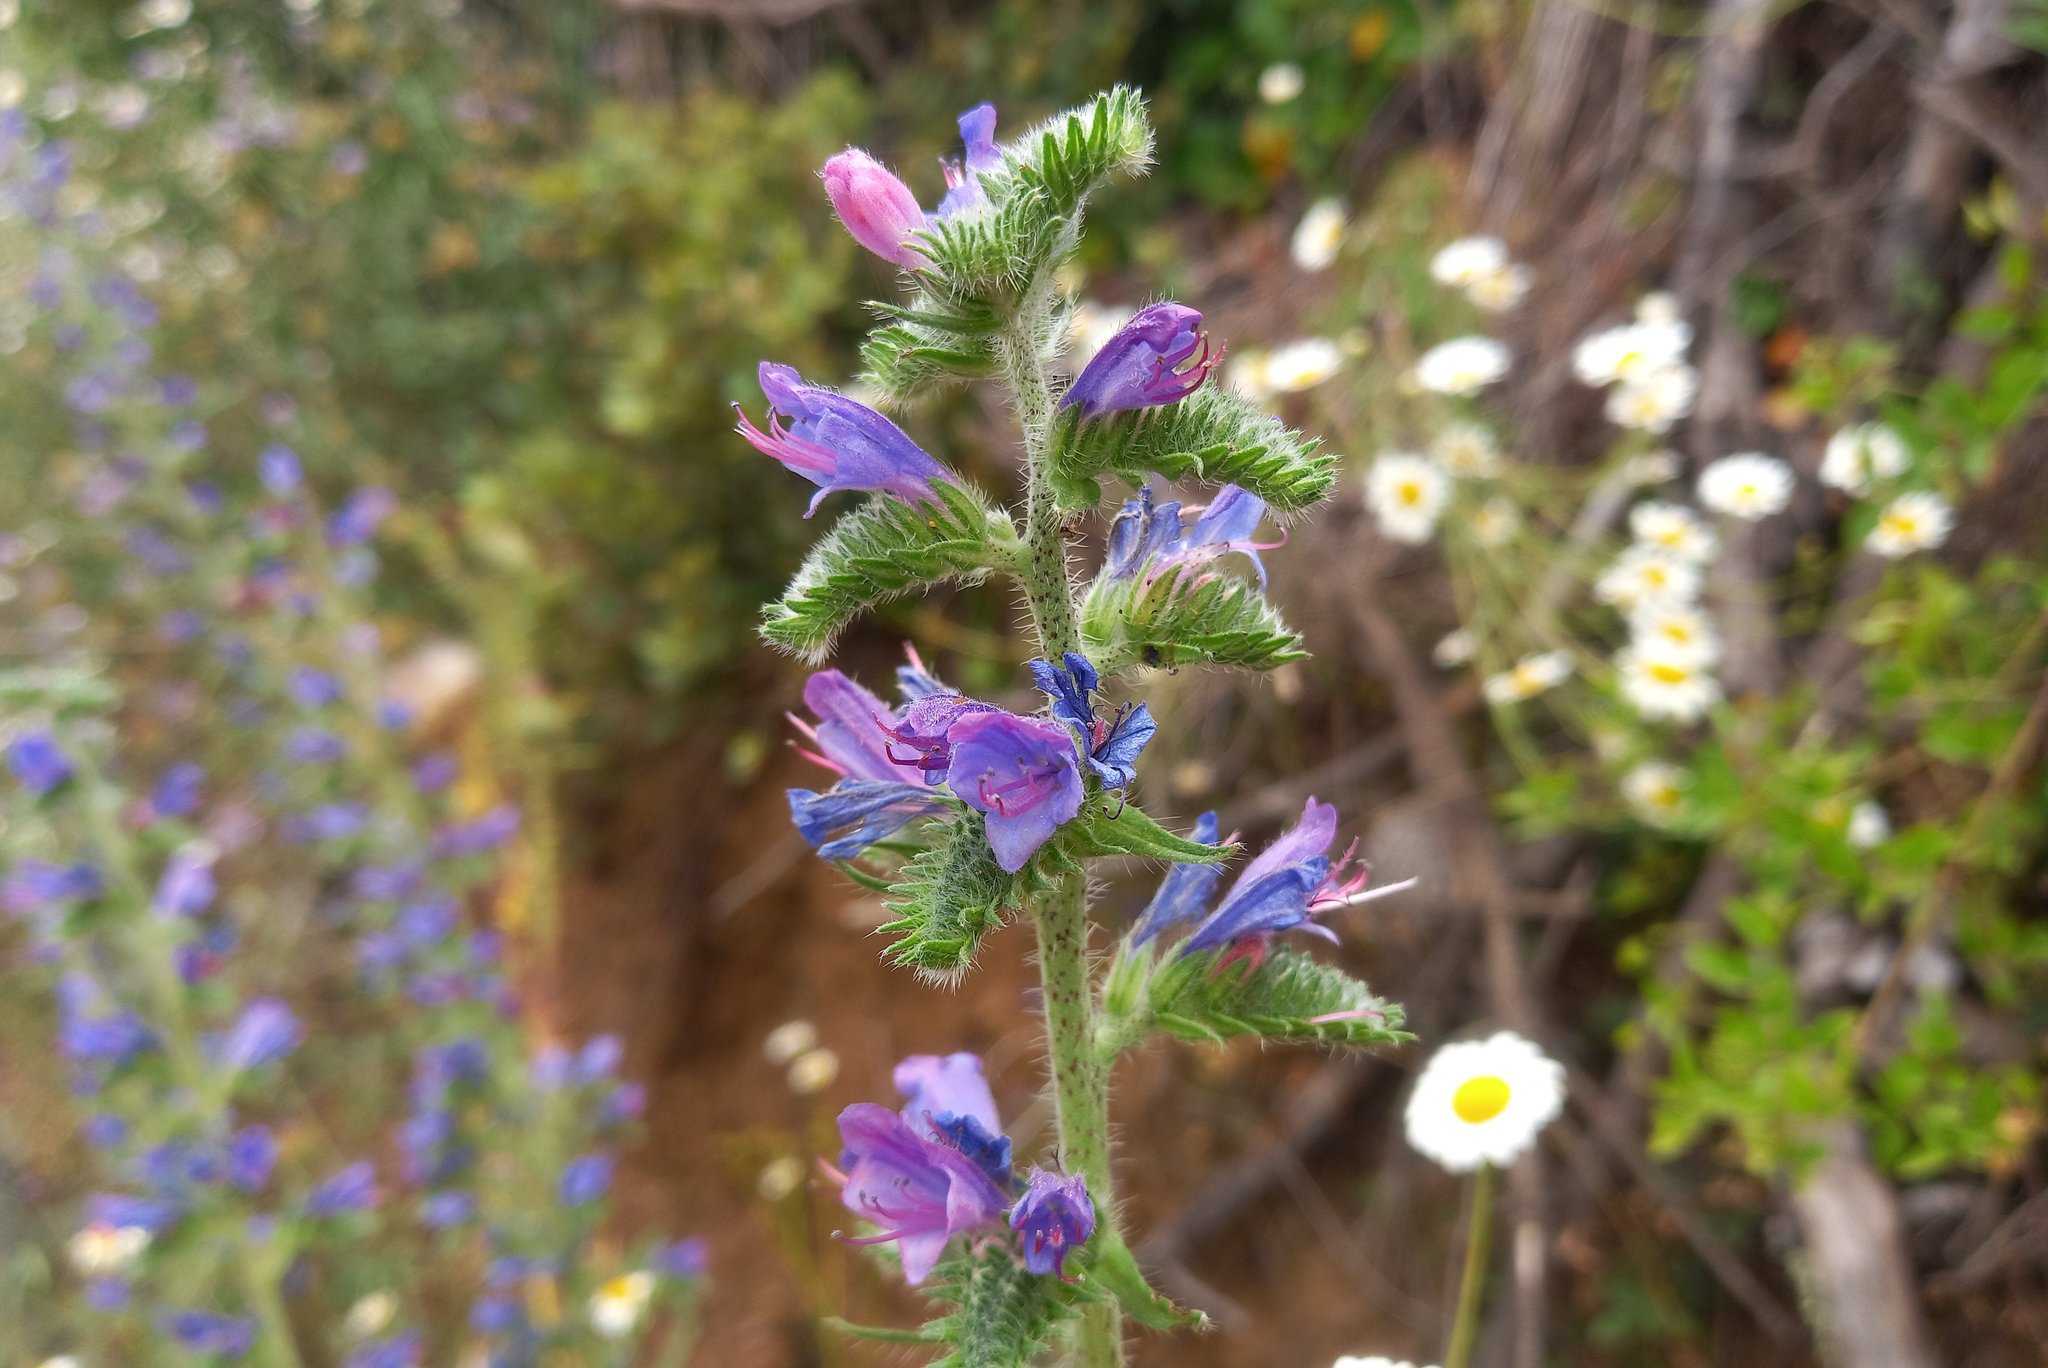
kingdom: Plantae
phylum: Tracheophyta
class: Magnoliopsida
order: Boraginales
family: Boraginaceae
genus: Echium
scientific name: Echium vulgare
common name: Common viper's bugloss
